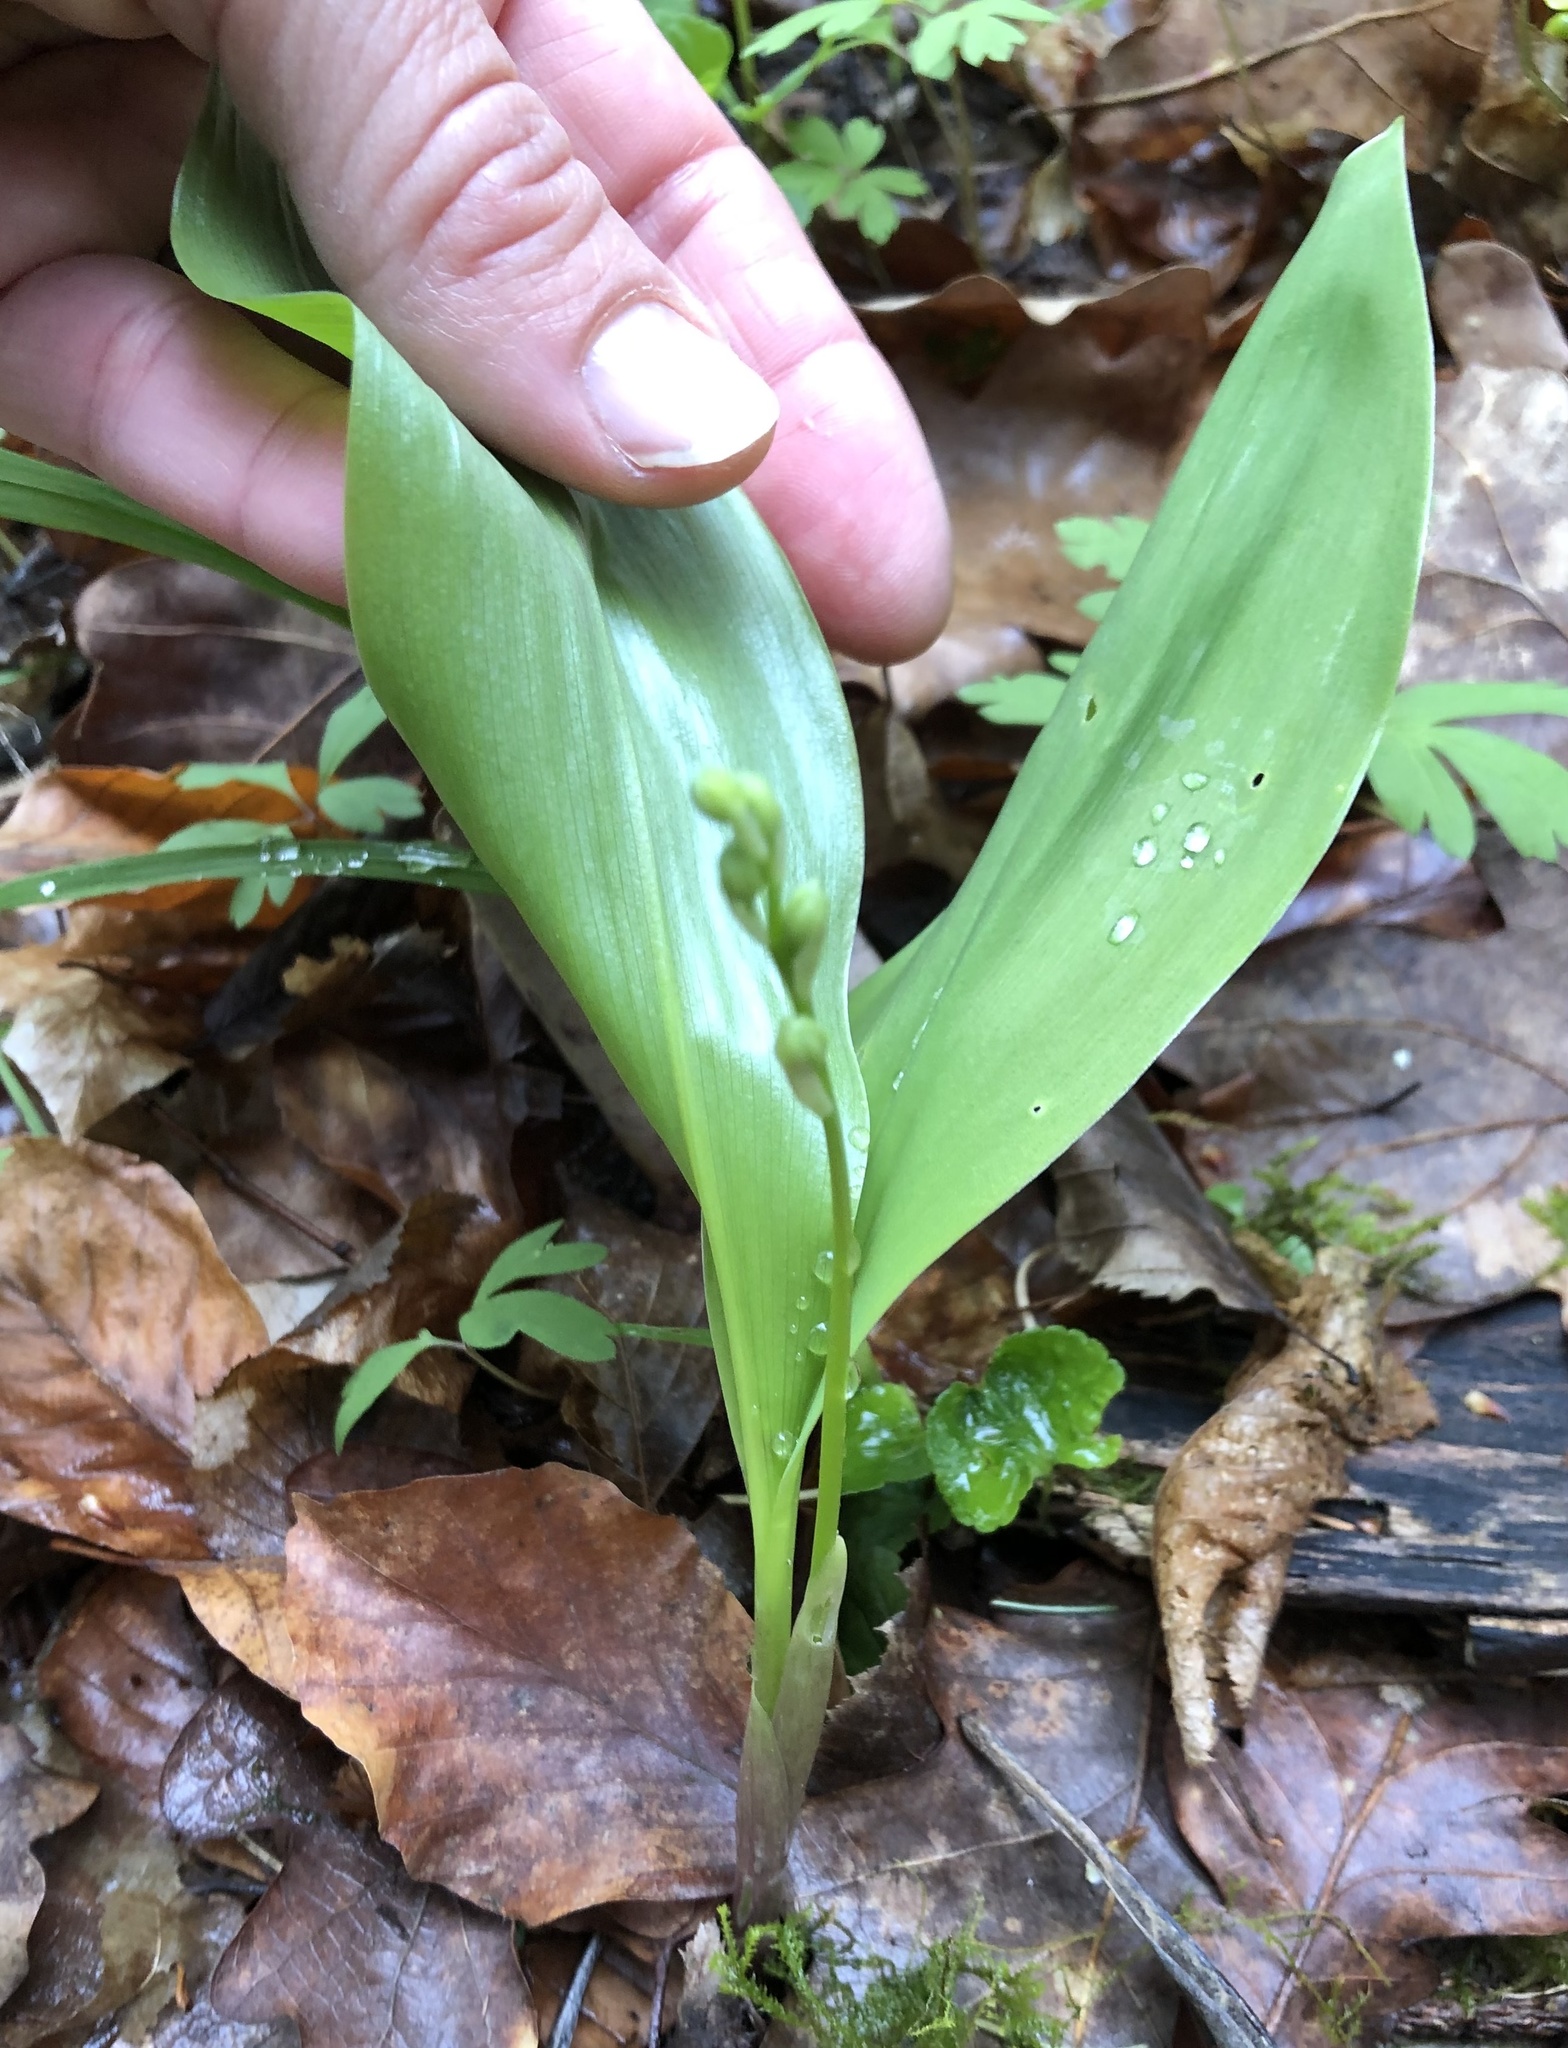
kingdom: Plantae
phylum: Tracheophyta
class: Liliopsida
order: Asparagales
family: Asparagaceae
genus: Convallaria
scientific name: Convallaria majalis
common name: Lily-of-the-valley
